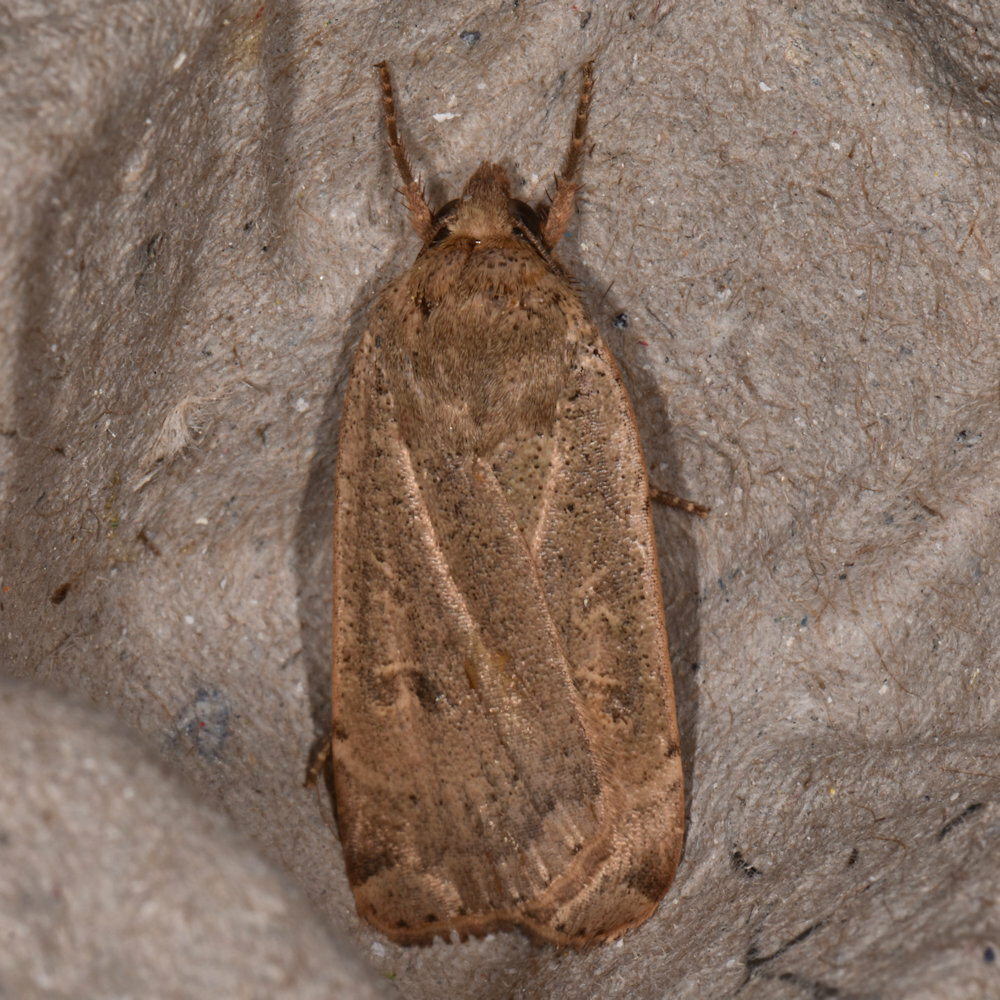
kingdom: Animalia
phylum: Arthropoda
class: Insecta
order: Lepidoptera
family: Noctuidae
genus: Noctua
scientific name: Noctua comes
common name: Lesser yellow underwing
